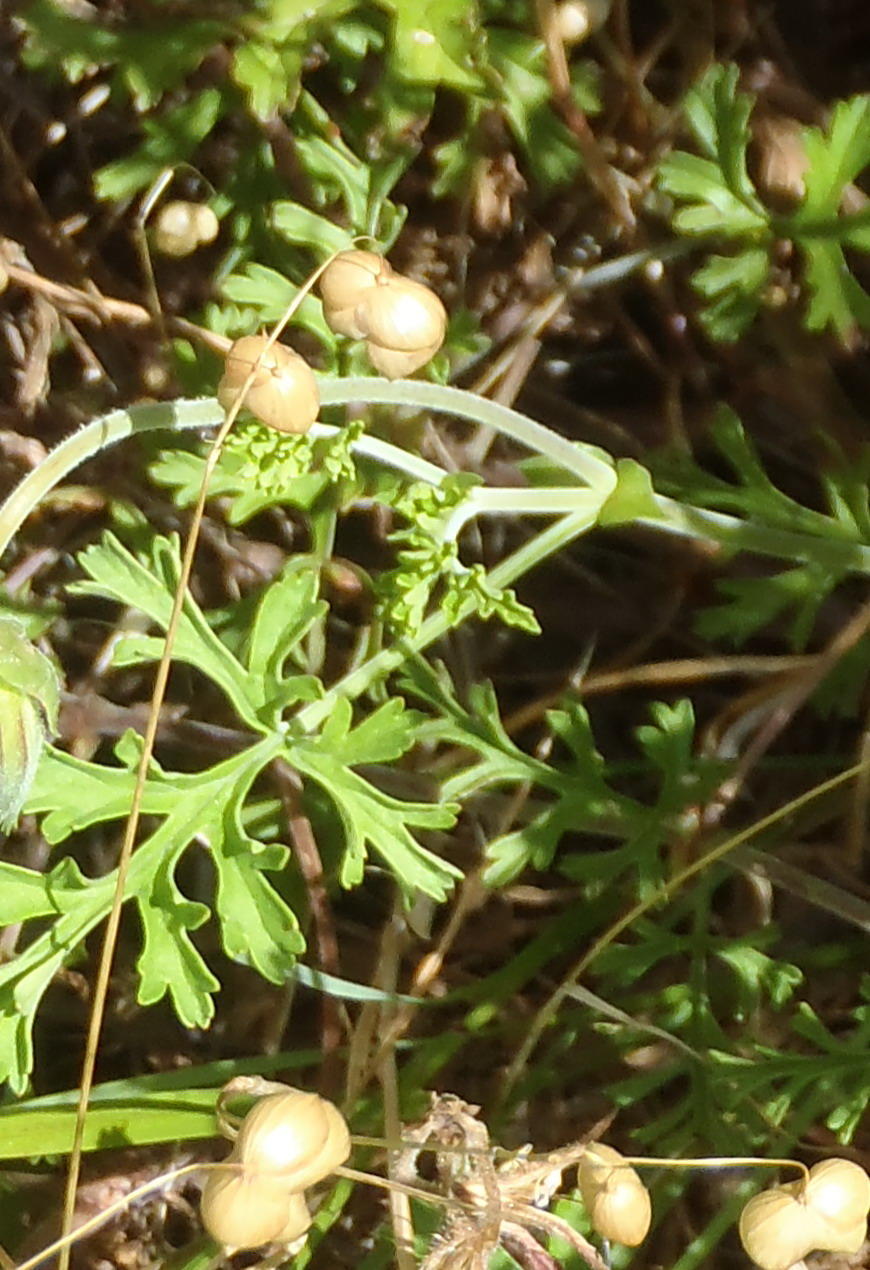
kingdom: Plantae
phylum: Tracheophyta
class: Magnoliopsida
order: Geraniales
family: Geraniaceae
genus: Pelargonium
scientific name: Pelargonium myrrhifolium
